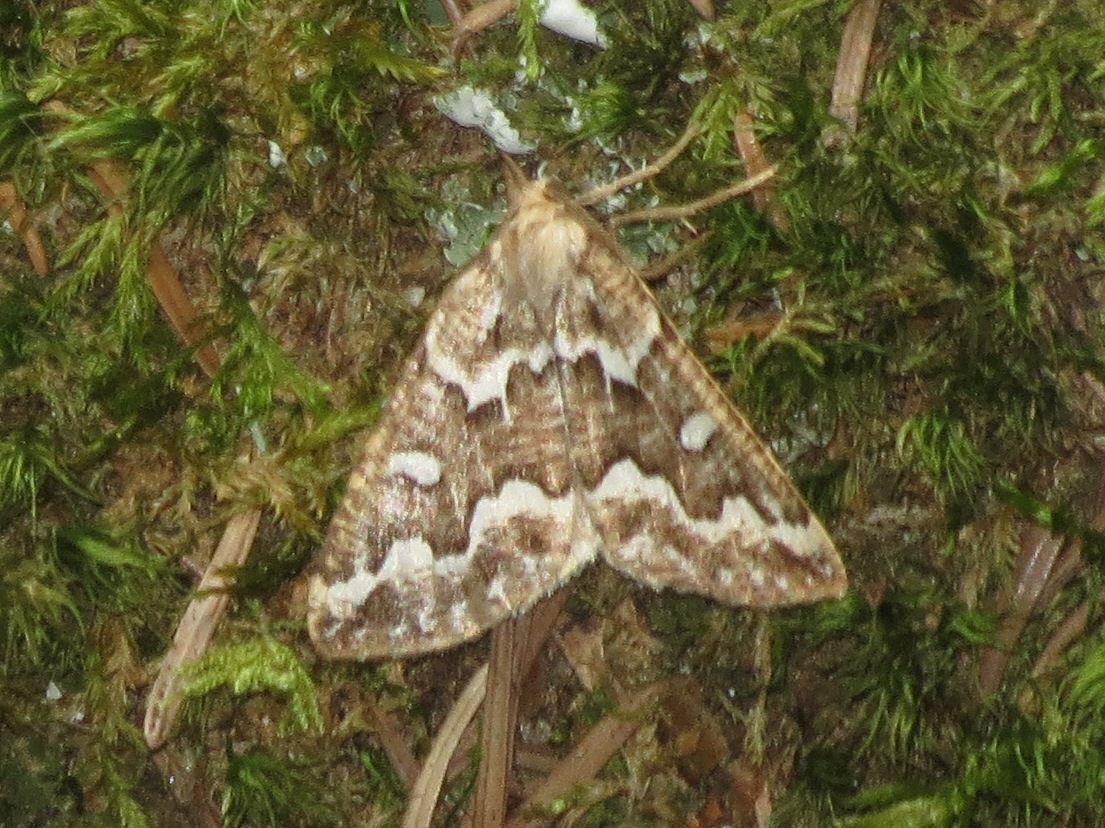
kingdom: Animalia
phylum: Arthropoda
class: Insecta
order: Lepidoptera
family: Geometridae
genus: Caripeta
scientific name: Caripeta divisata
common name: Gray spruce looper
